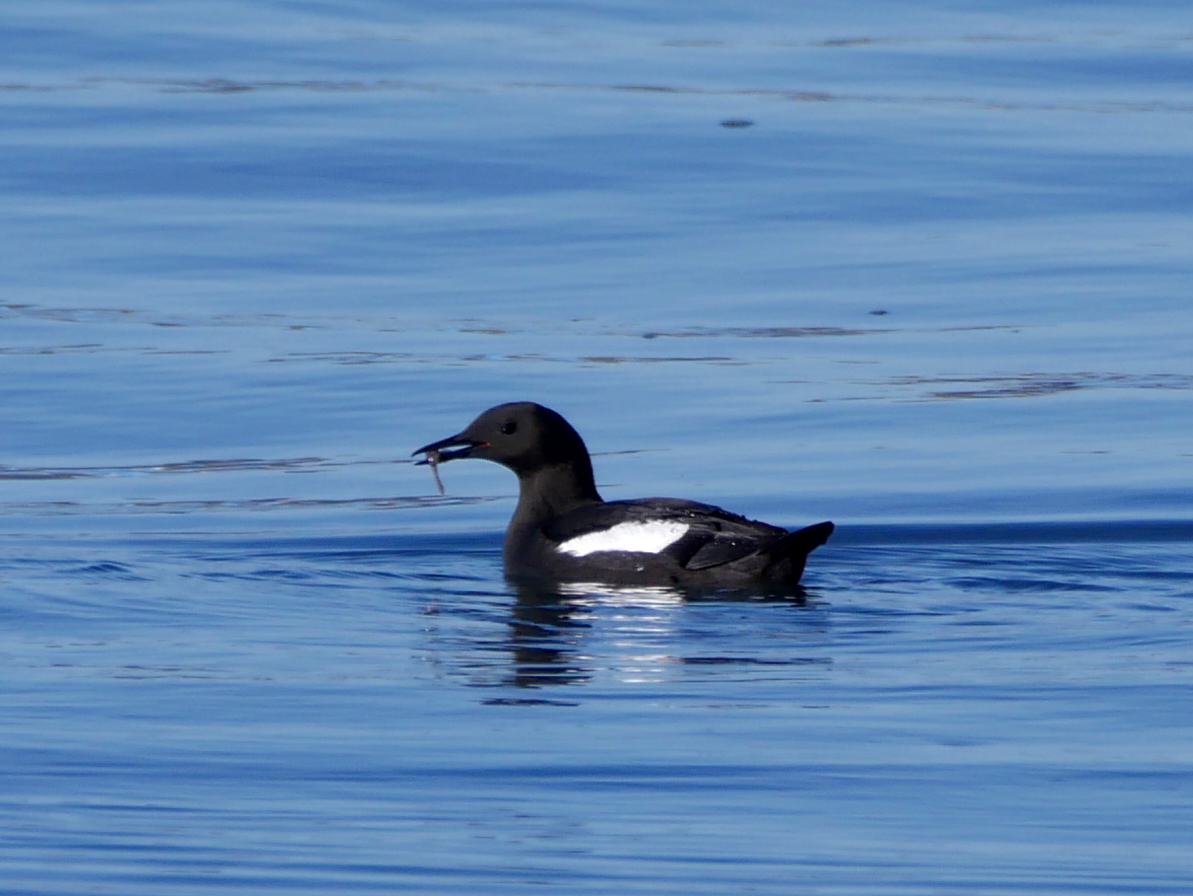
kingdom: Animalia
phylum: Chordata
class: Aves
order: Charadriiformes
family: Alcidae
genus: Cepphus
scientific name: Cepphus grylle
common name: Black guillemot
